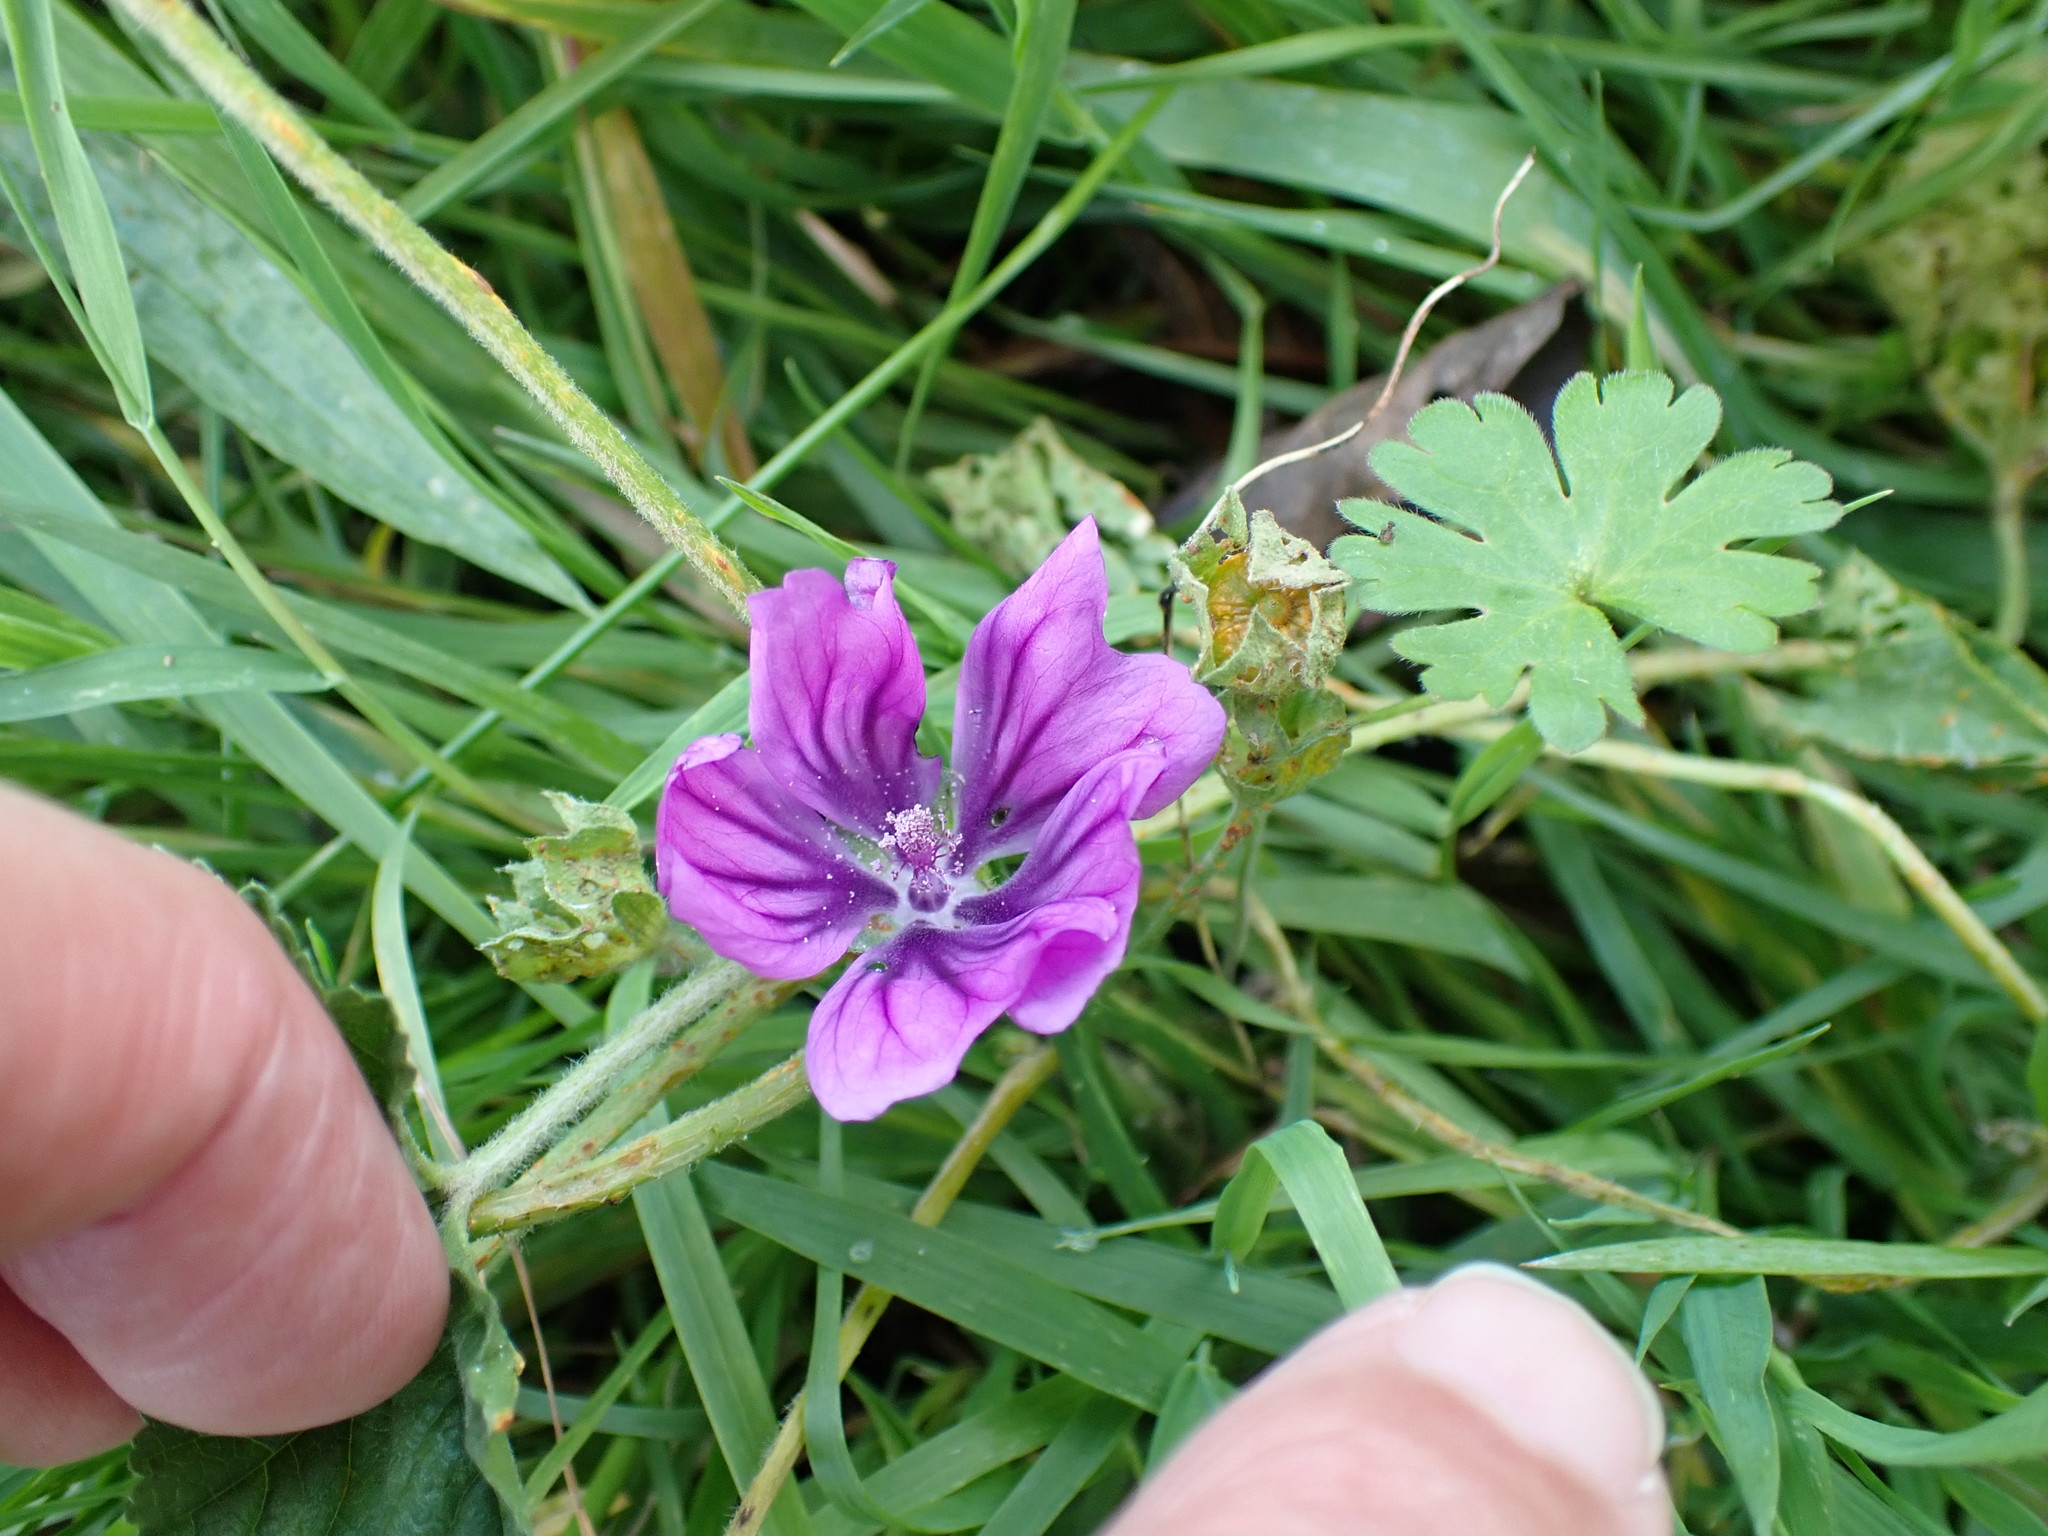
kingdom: Plantae
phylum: Tracheophyta
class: Magnoliopsida
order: Malvales
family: Malvaceae
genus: Malva
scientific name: Malva sylvestris
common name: Common mallow
